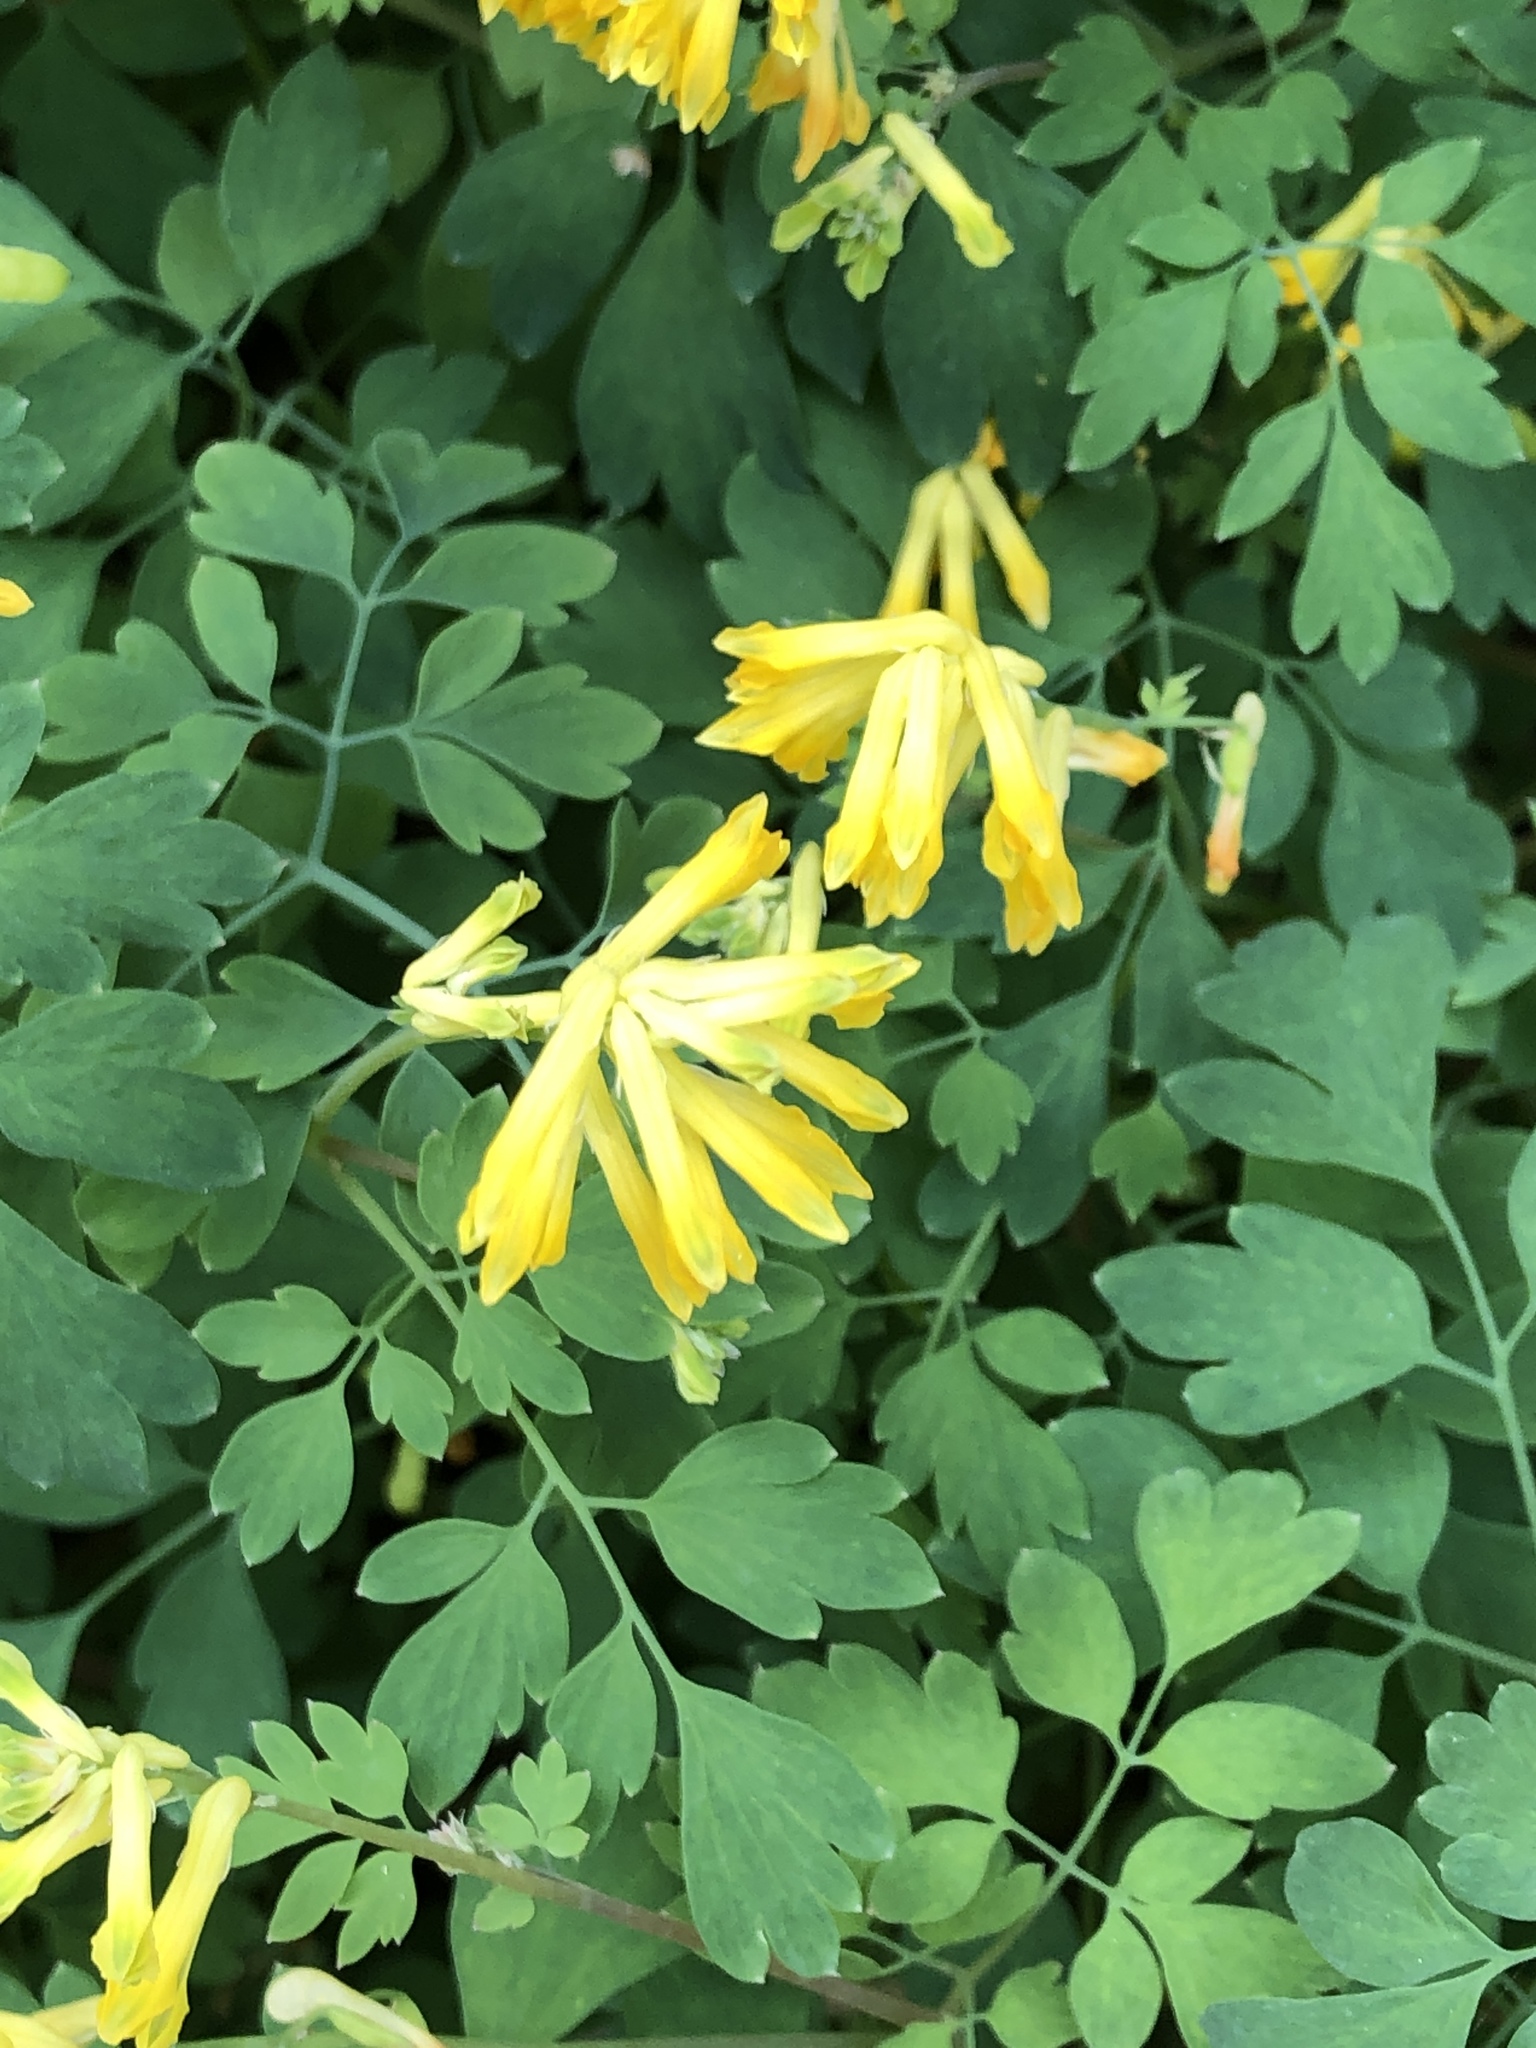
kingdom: Plantae
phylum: Tracheophyta
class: Magnoliopsida
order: Ranunculales
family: Papaveraceae
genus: Pseudofumaria
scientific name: Pseudofumaria lutea
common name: Yellow corydalis
